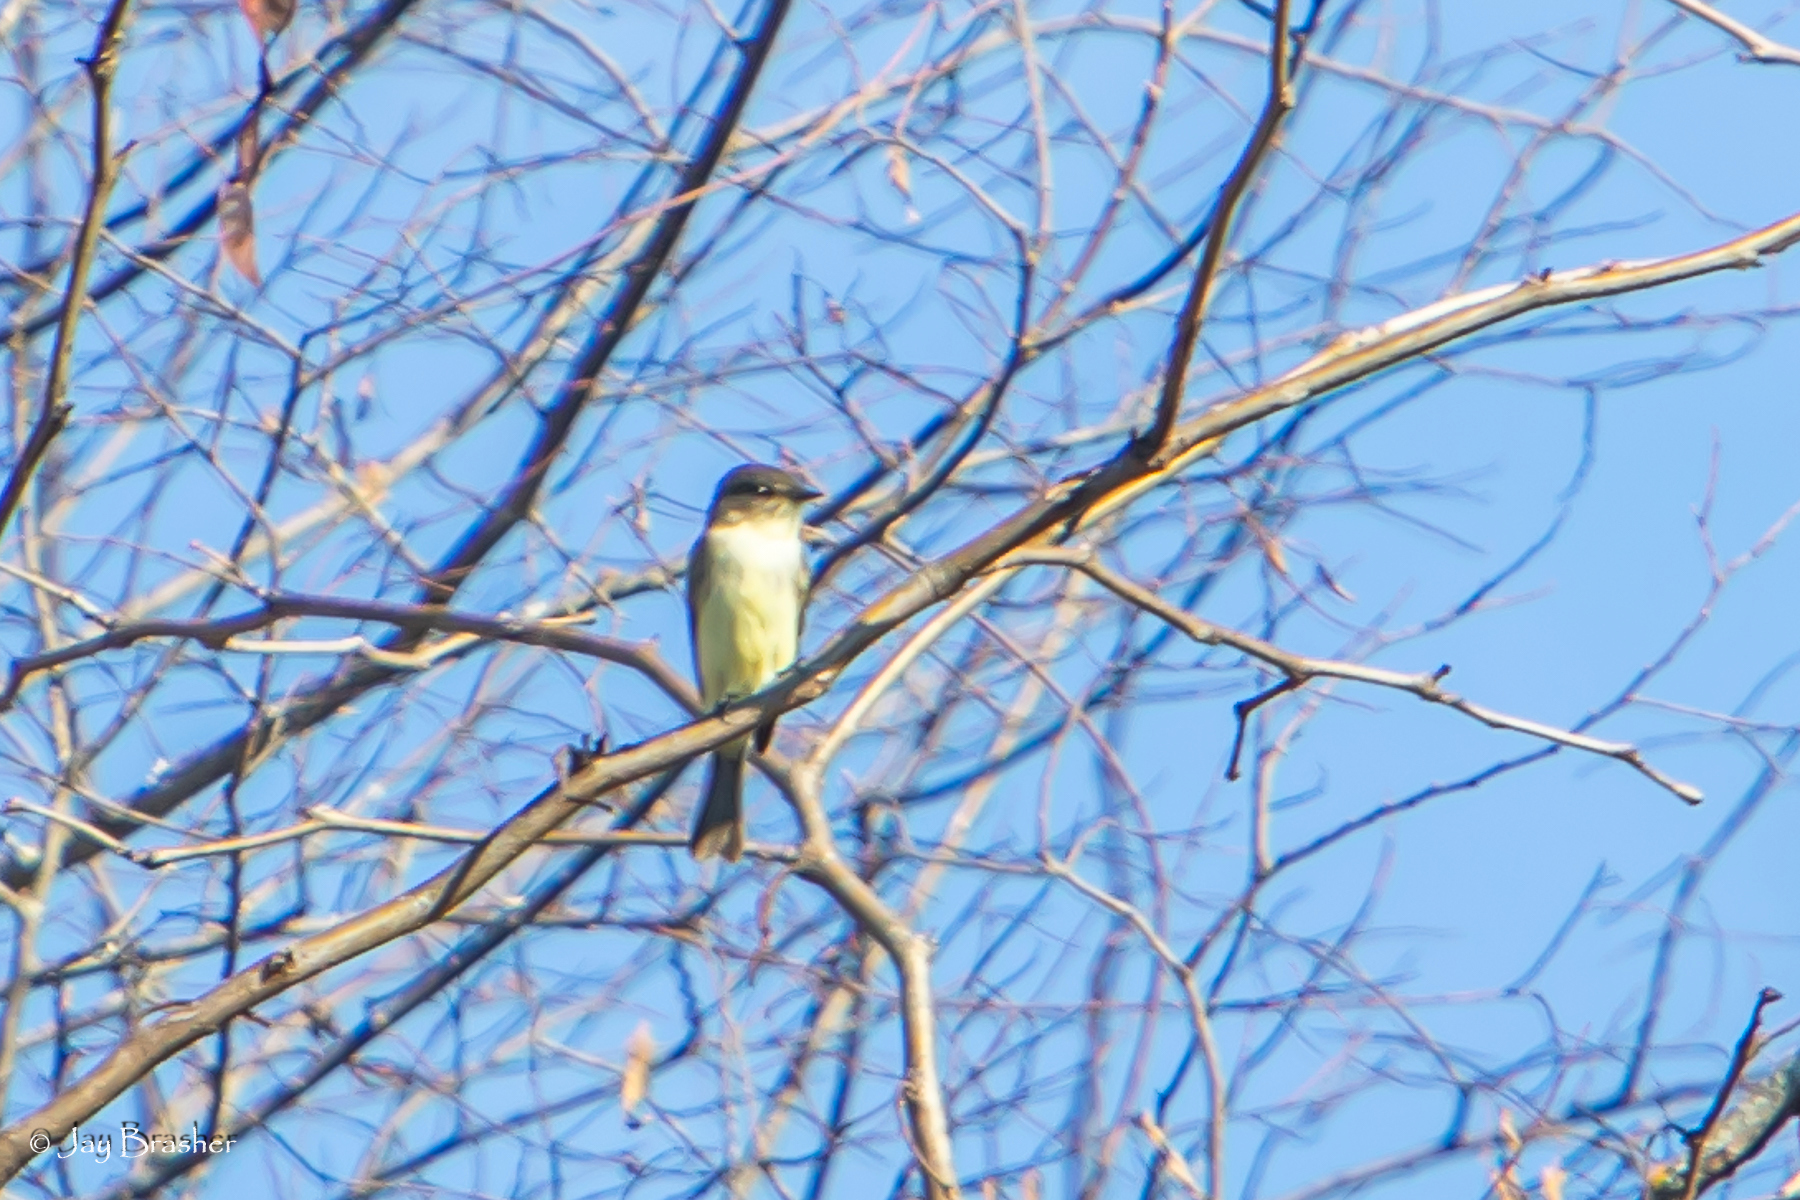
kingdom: Animalia
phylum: Chordata
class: Aves
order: Passeriformes
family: Tyrannidae
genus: Sayornis
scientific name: Sayornis phoebe
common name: Eastern phoebe
